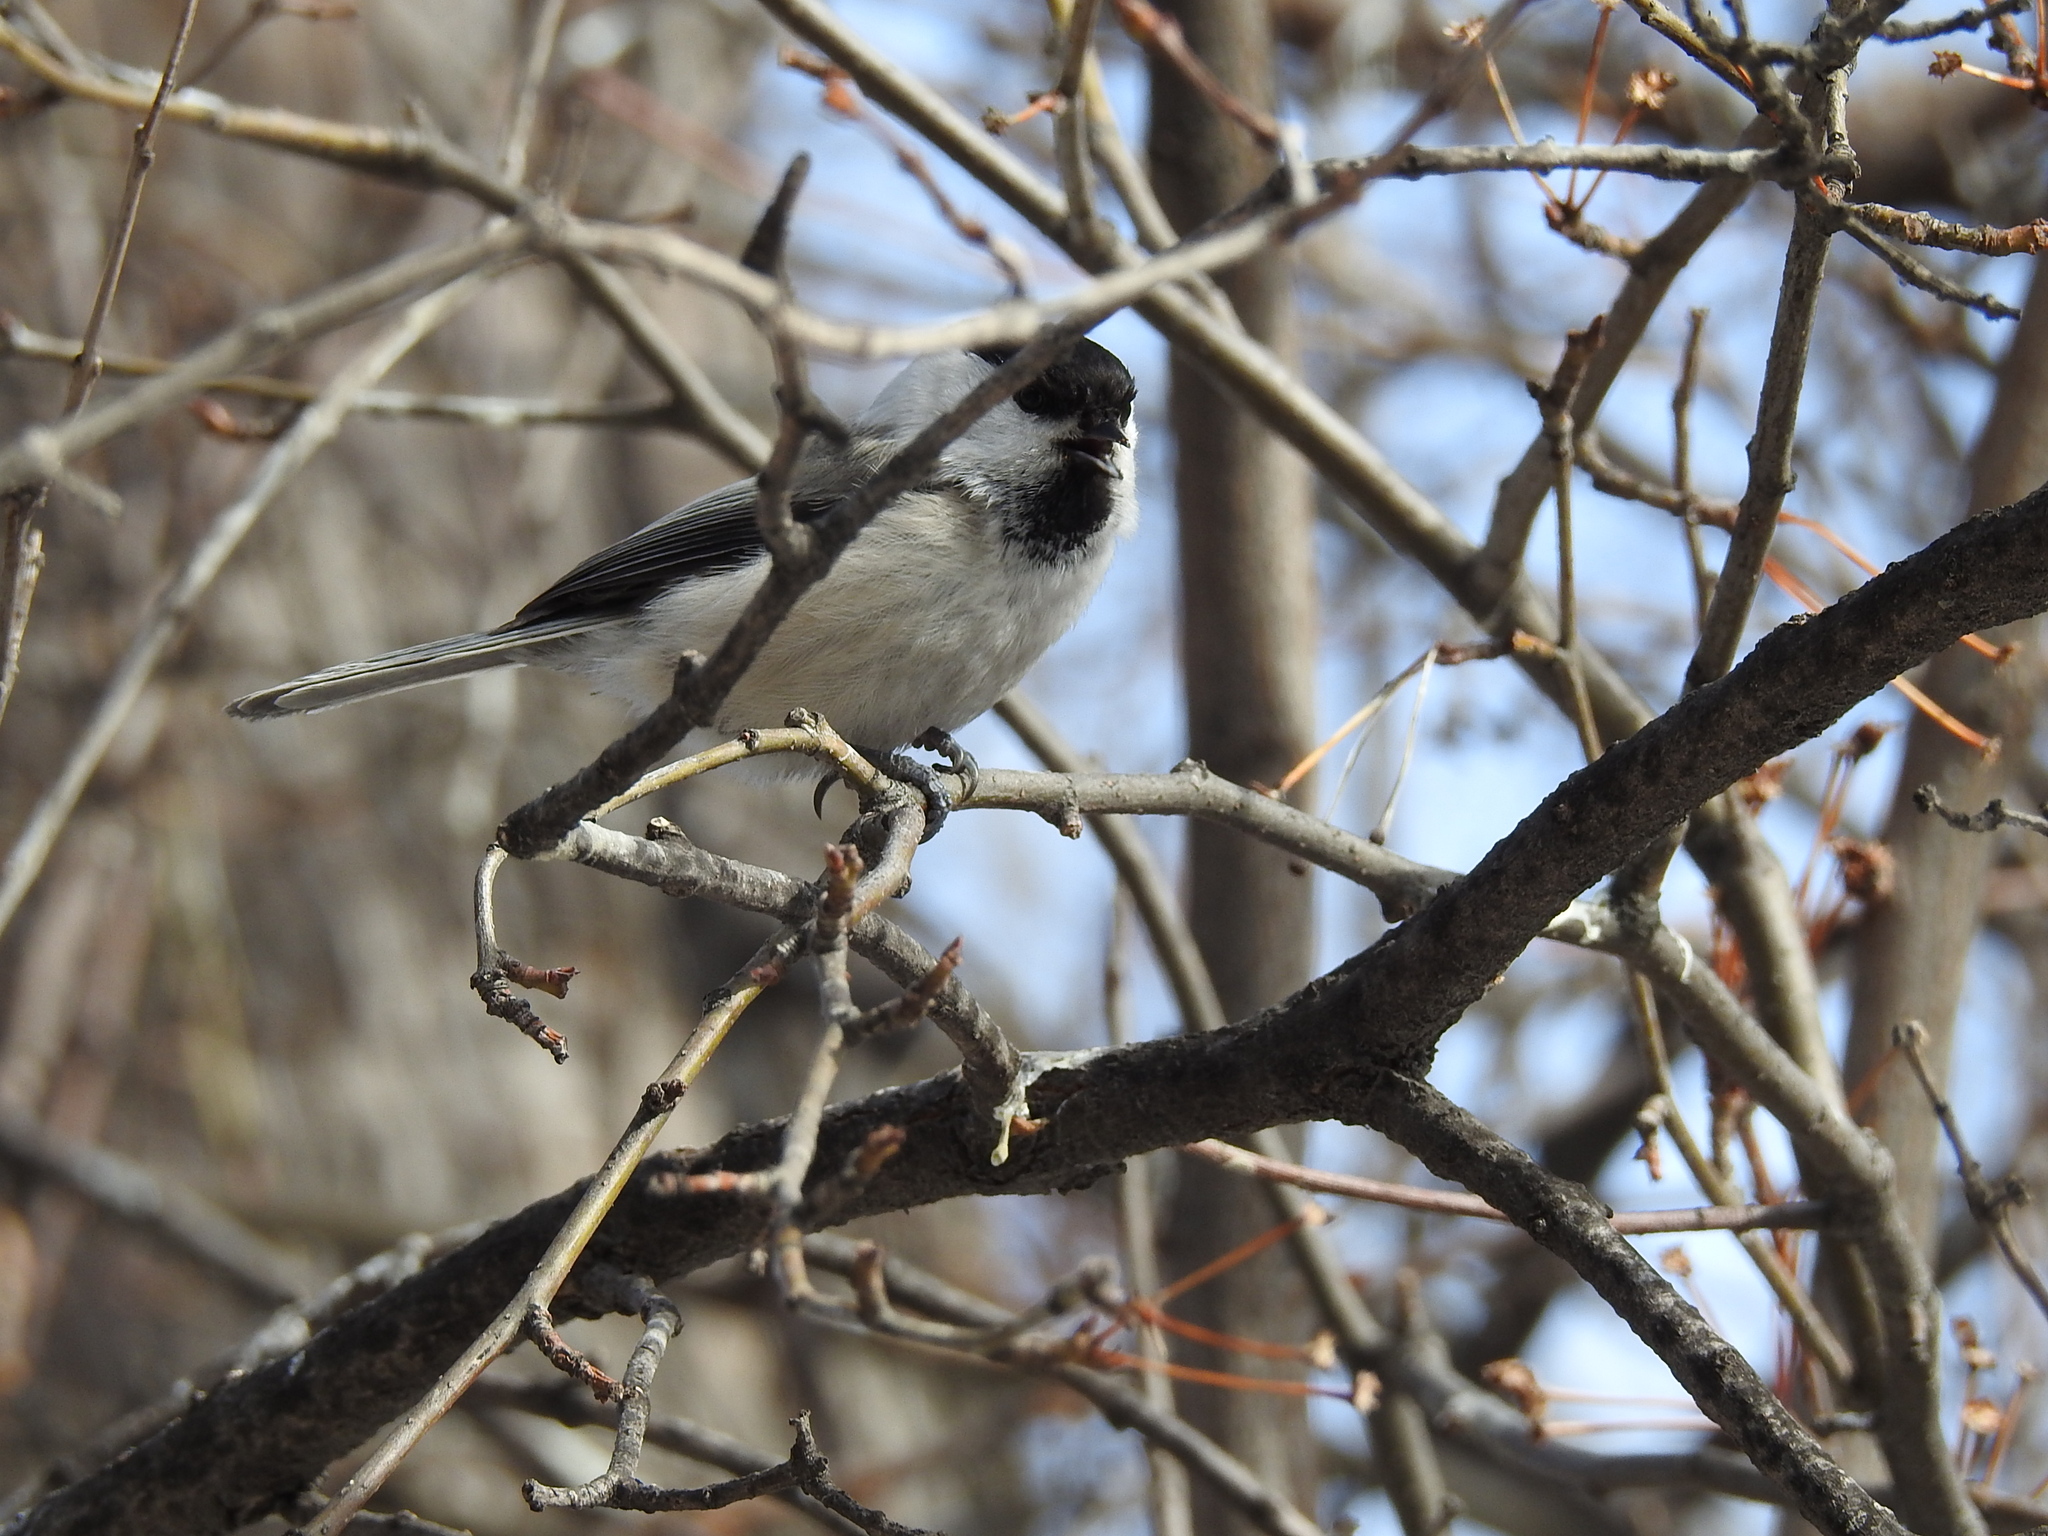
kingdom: Animalia
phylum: Chordata
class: Aves
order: Passeriformes
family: Paridae
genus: Poecile
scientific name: Poecile montanus
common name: Willow tit
